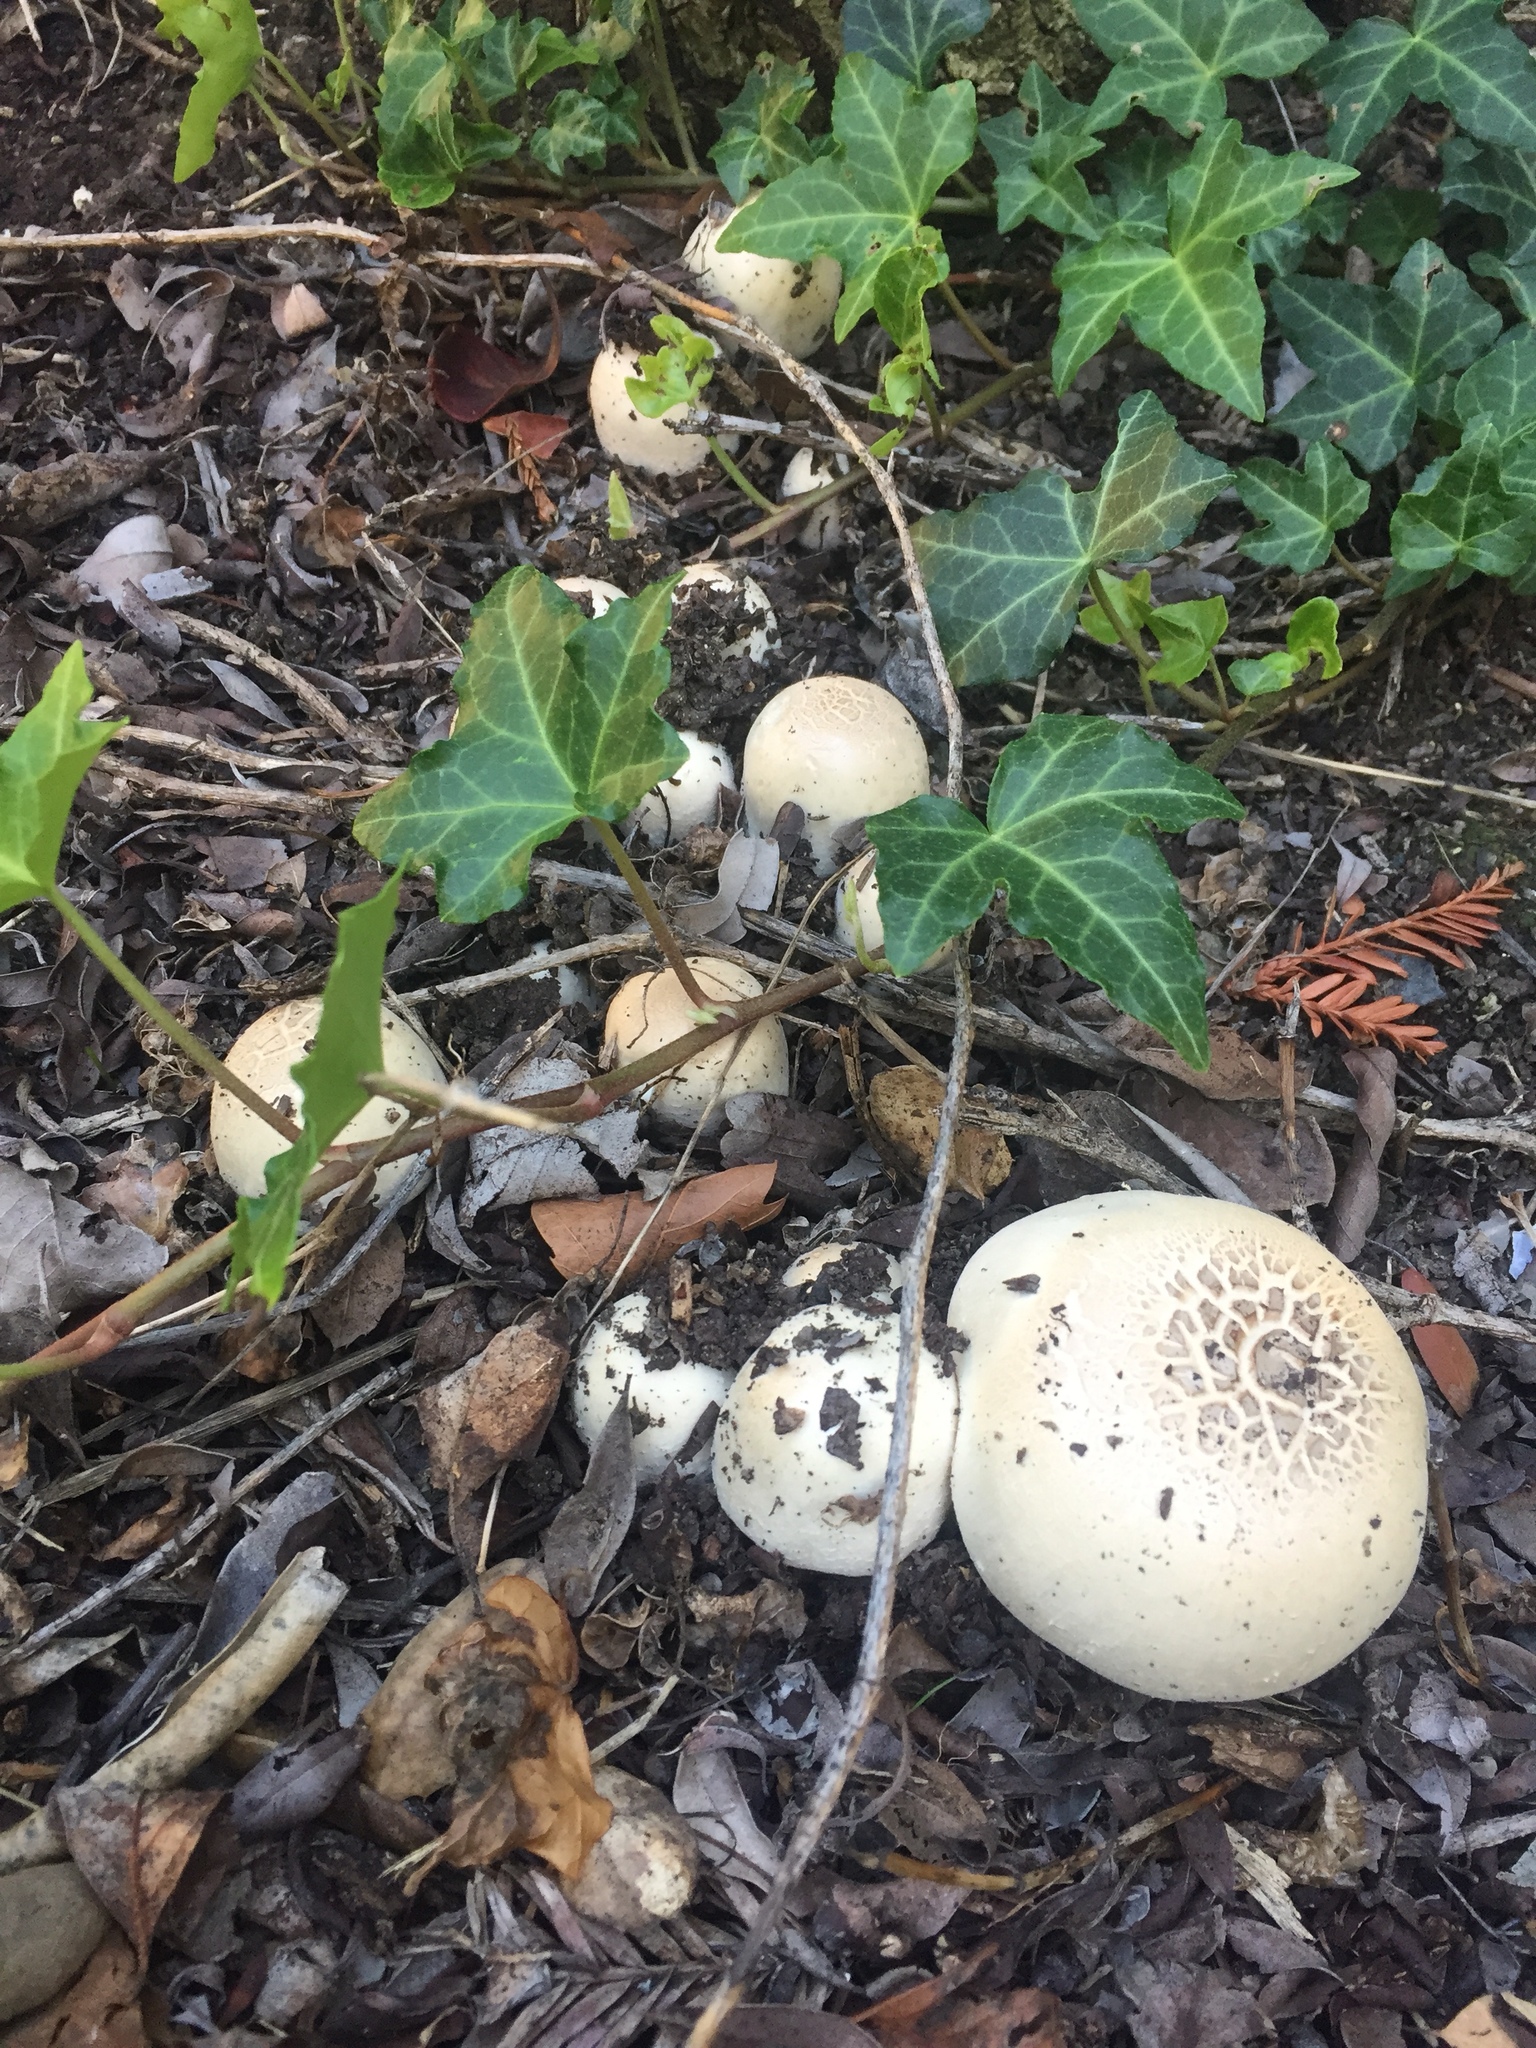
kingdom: Fungi
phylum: Basidiomycota
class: Agaricomycetes
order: Agaricales
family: Agaricaceae
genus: Agaricus
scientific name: Agaricus californicus
